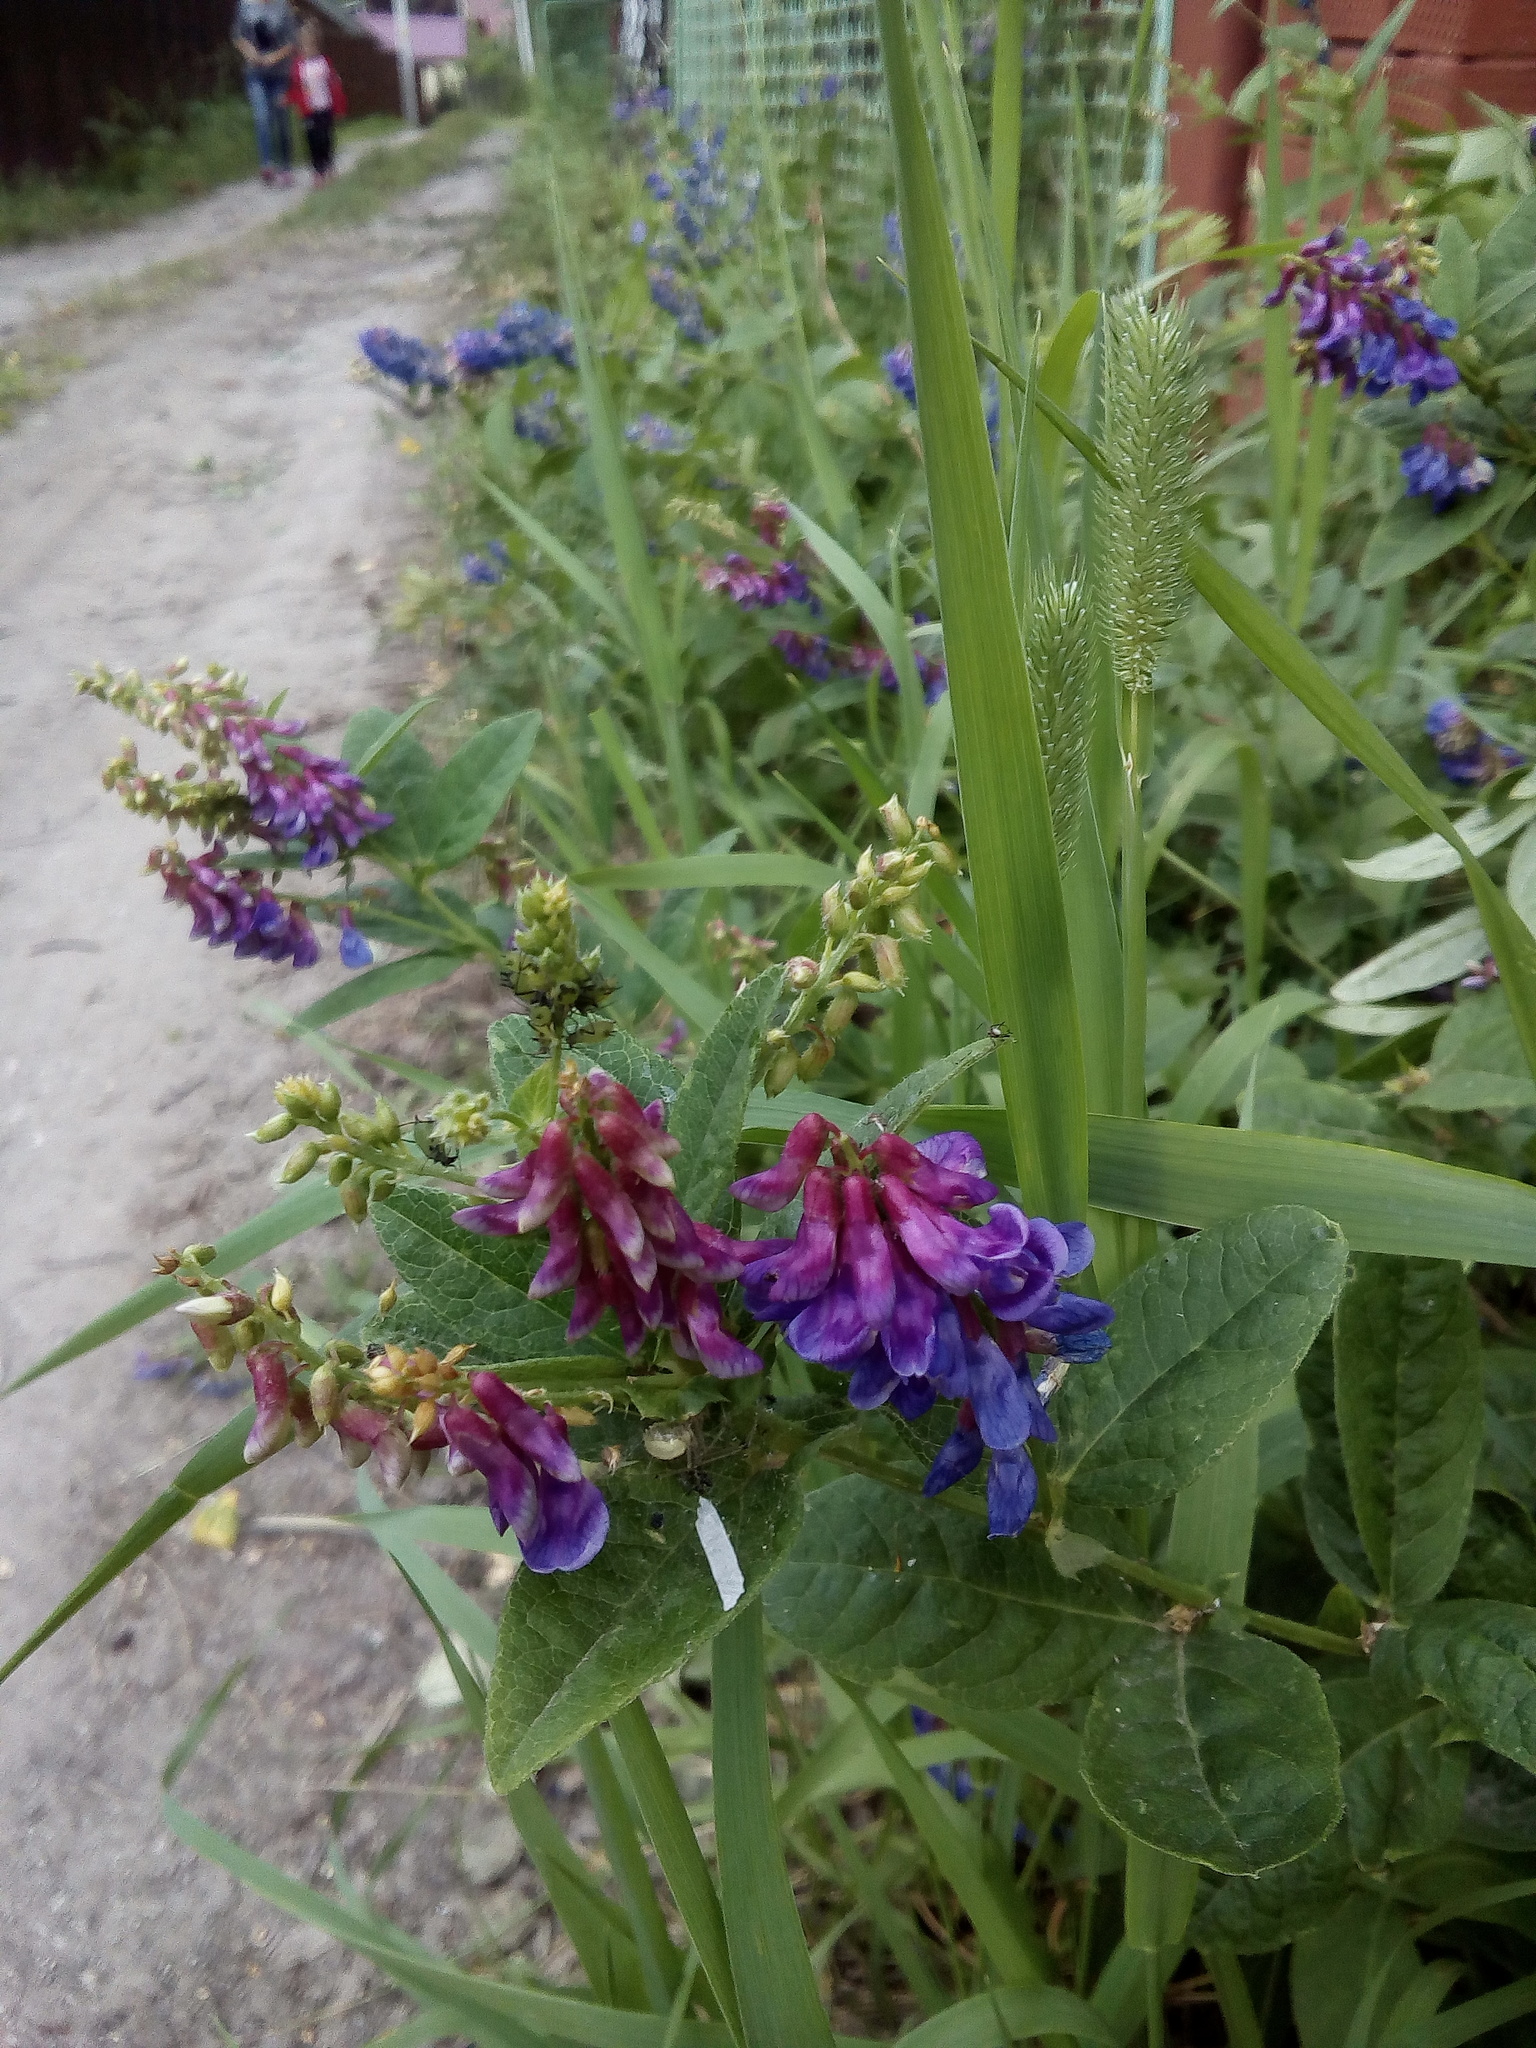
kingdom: Plantae
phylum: Tracheophyta
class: Magnoliopsida
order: Fabales
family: Fabaceae
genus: Vicia
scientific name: Vicia unijuga
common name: Two-leaf vetch
